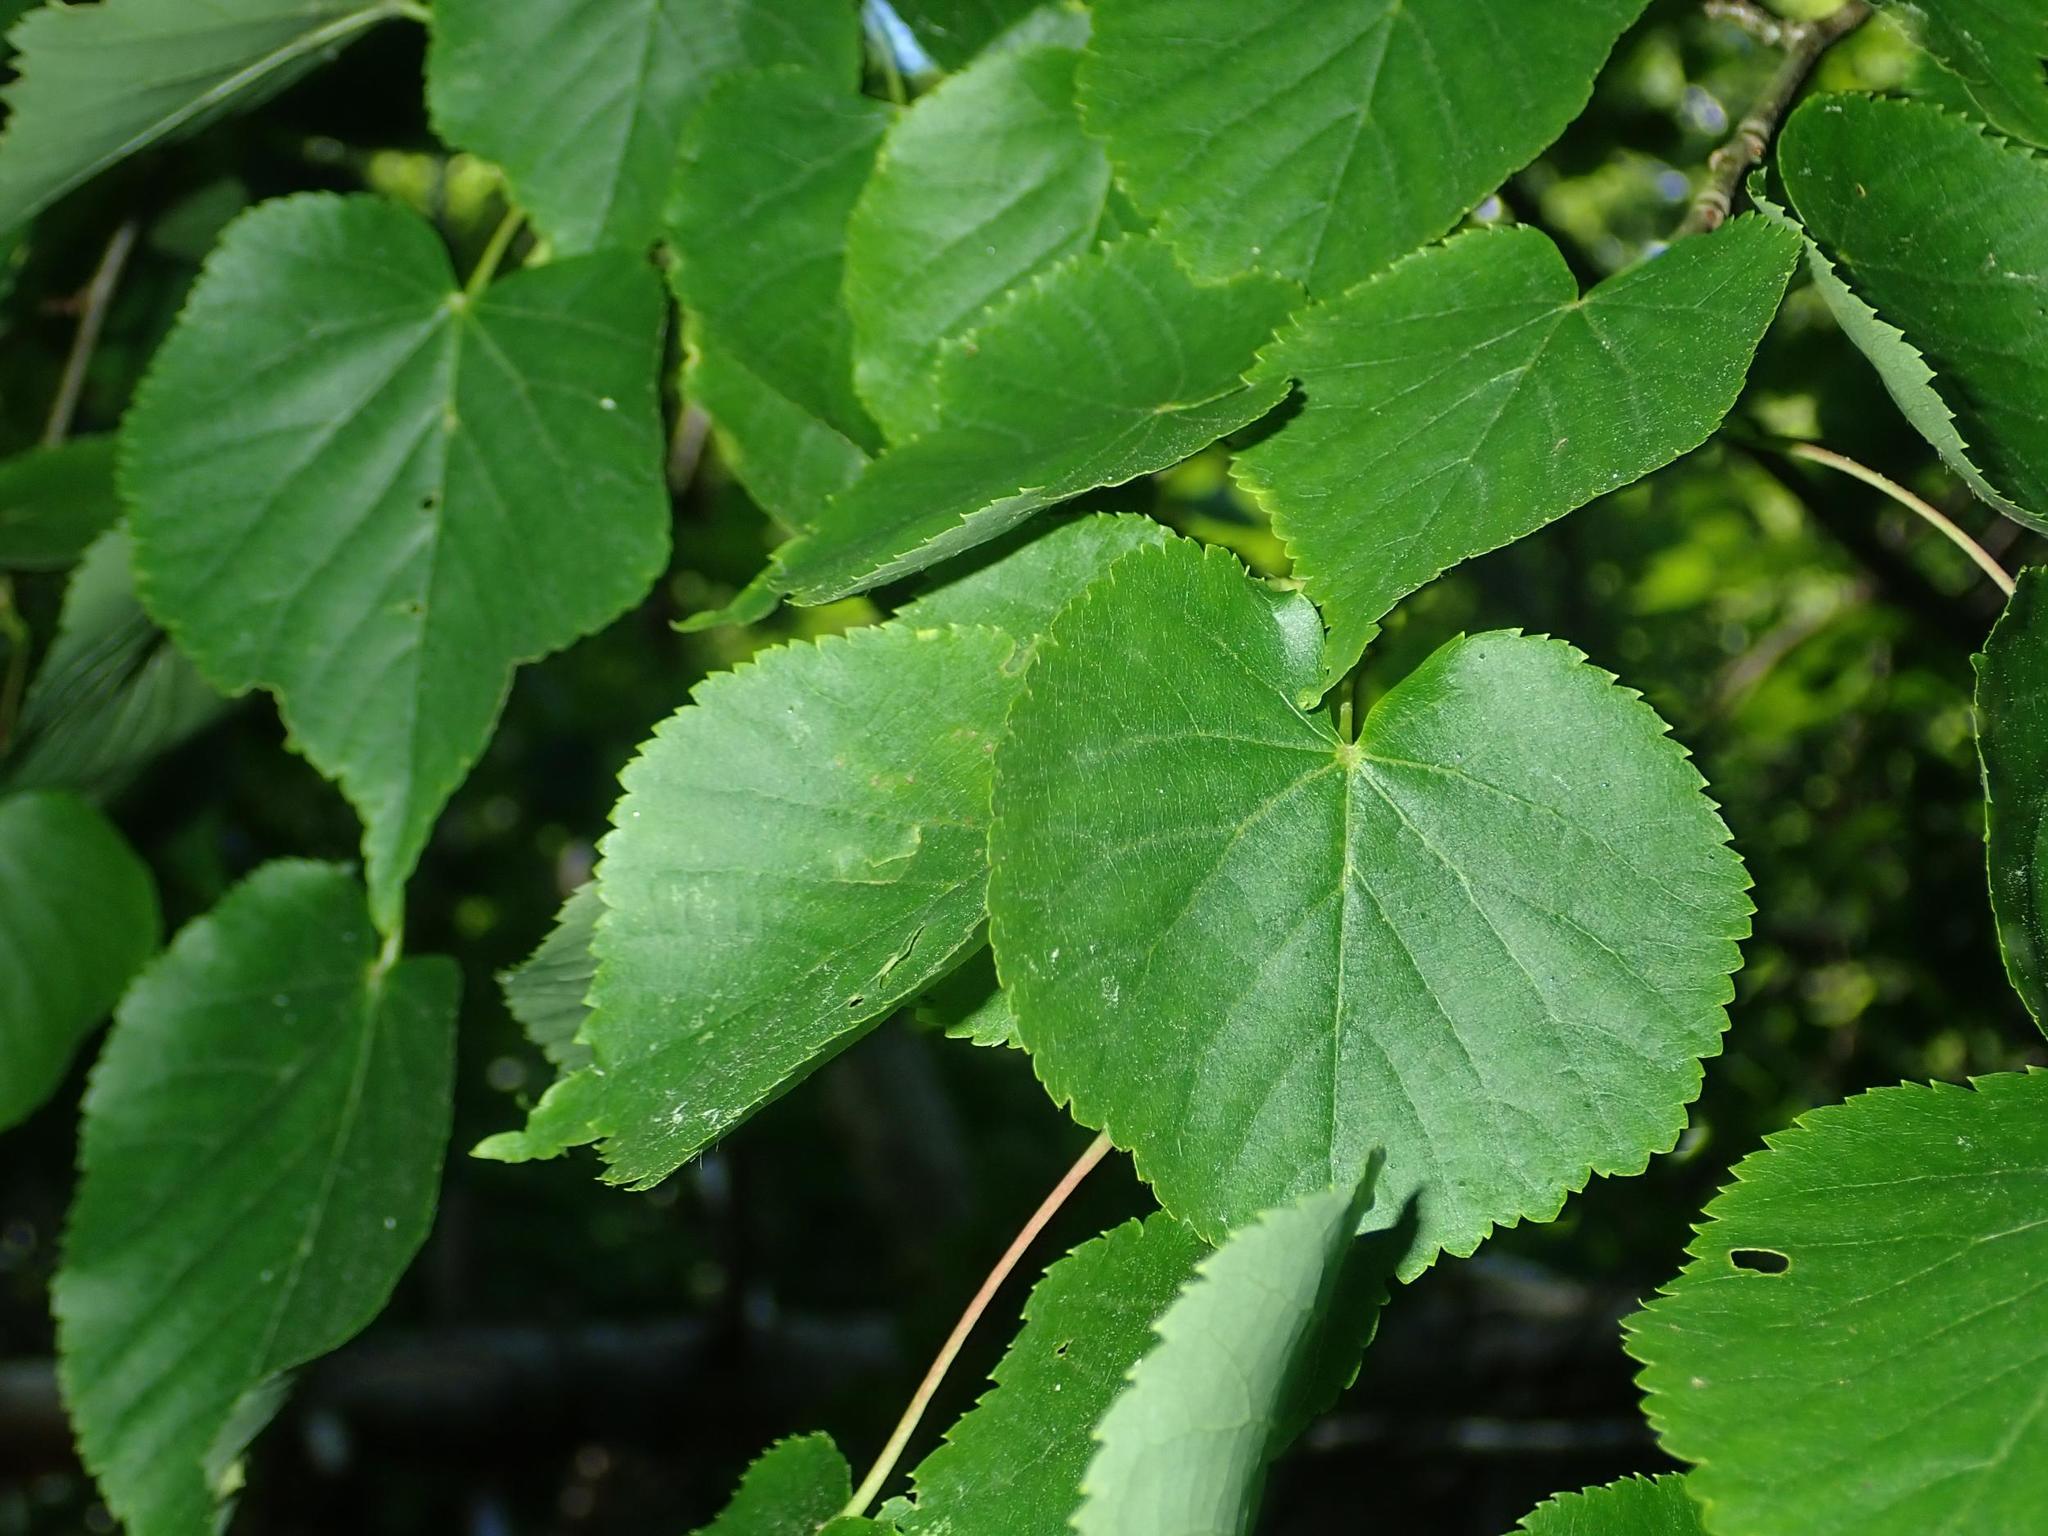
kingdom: Plantae
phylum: Tracheophyta
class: Magnoliopsida
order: Malvales
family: Malvaceae
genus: Tilia
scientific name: Tilia cordata
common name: Small-leaved lime
